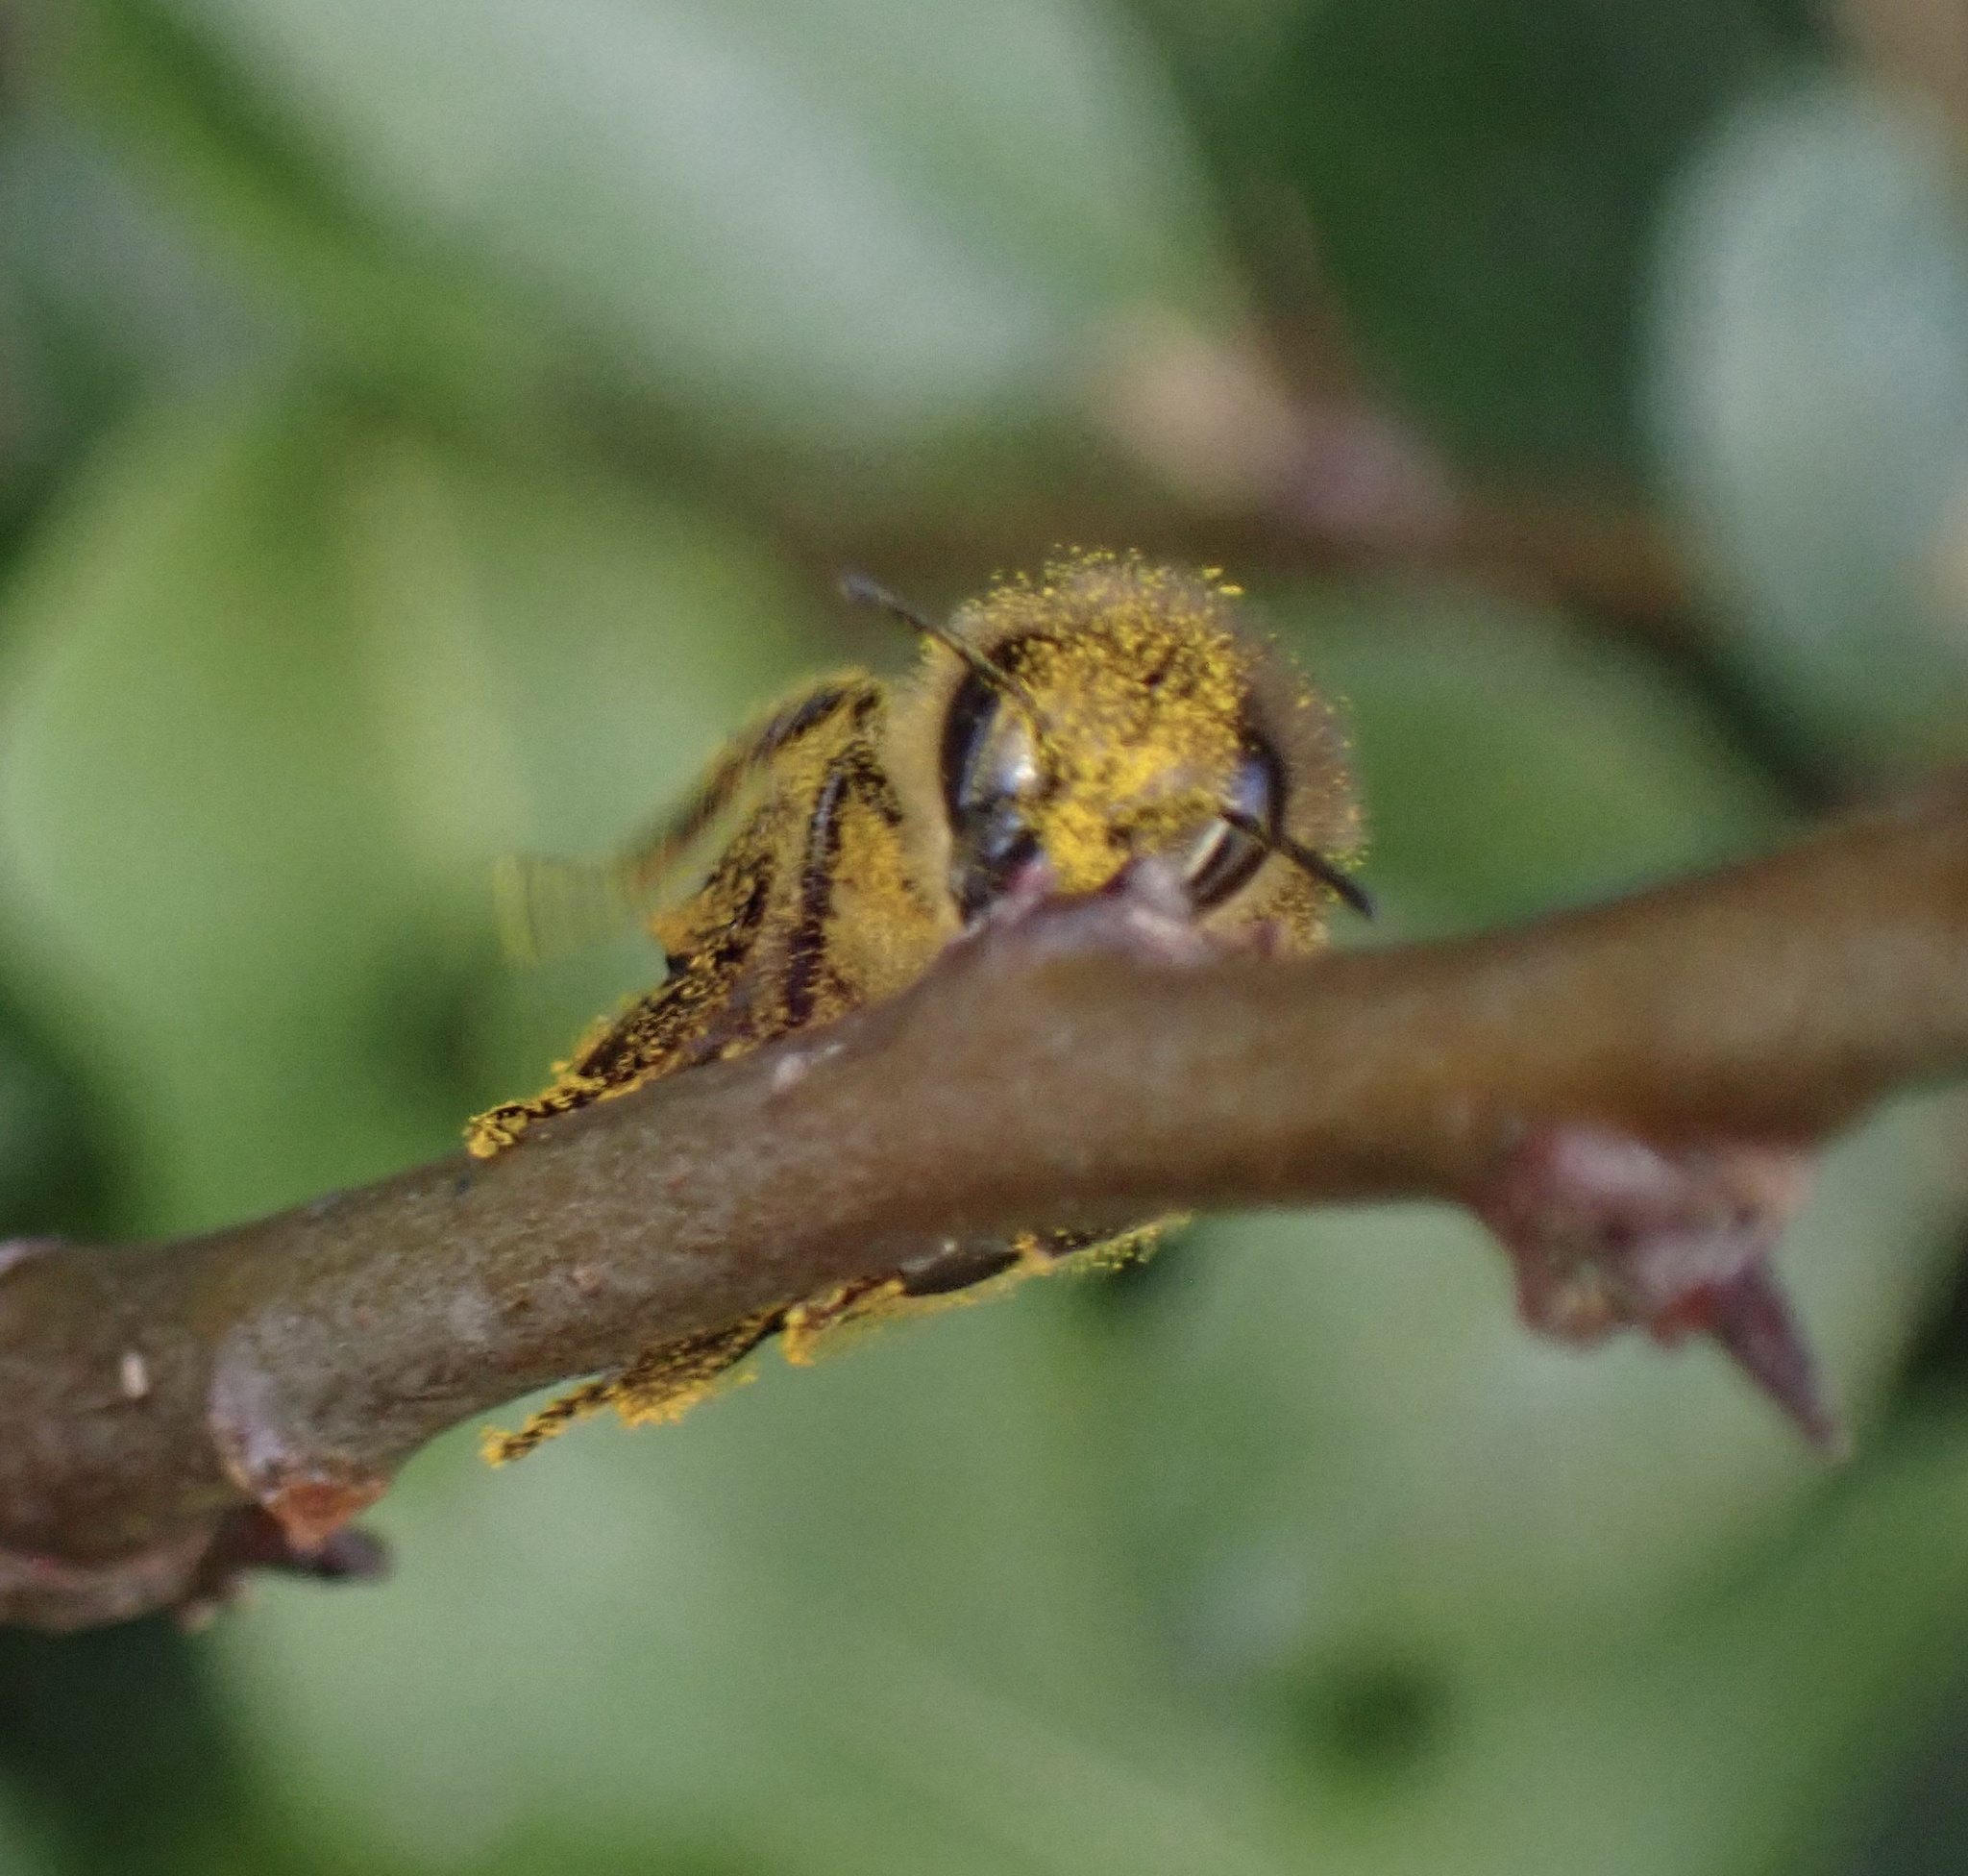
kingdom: Animalia
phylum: Arthropoda
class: Insecta
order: Hymenoptera
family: Apidae
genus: Apis
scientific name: Apis mellifera
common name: Honey bee
